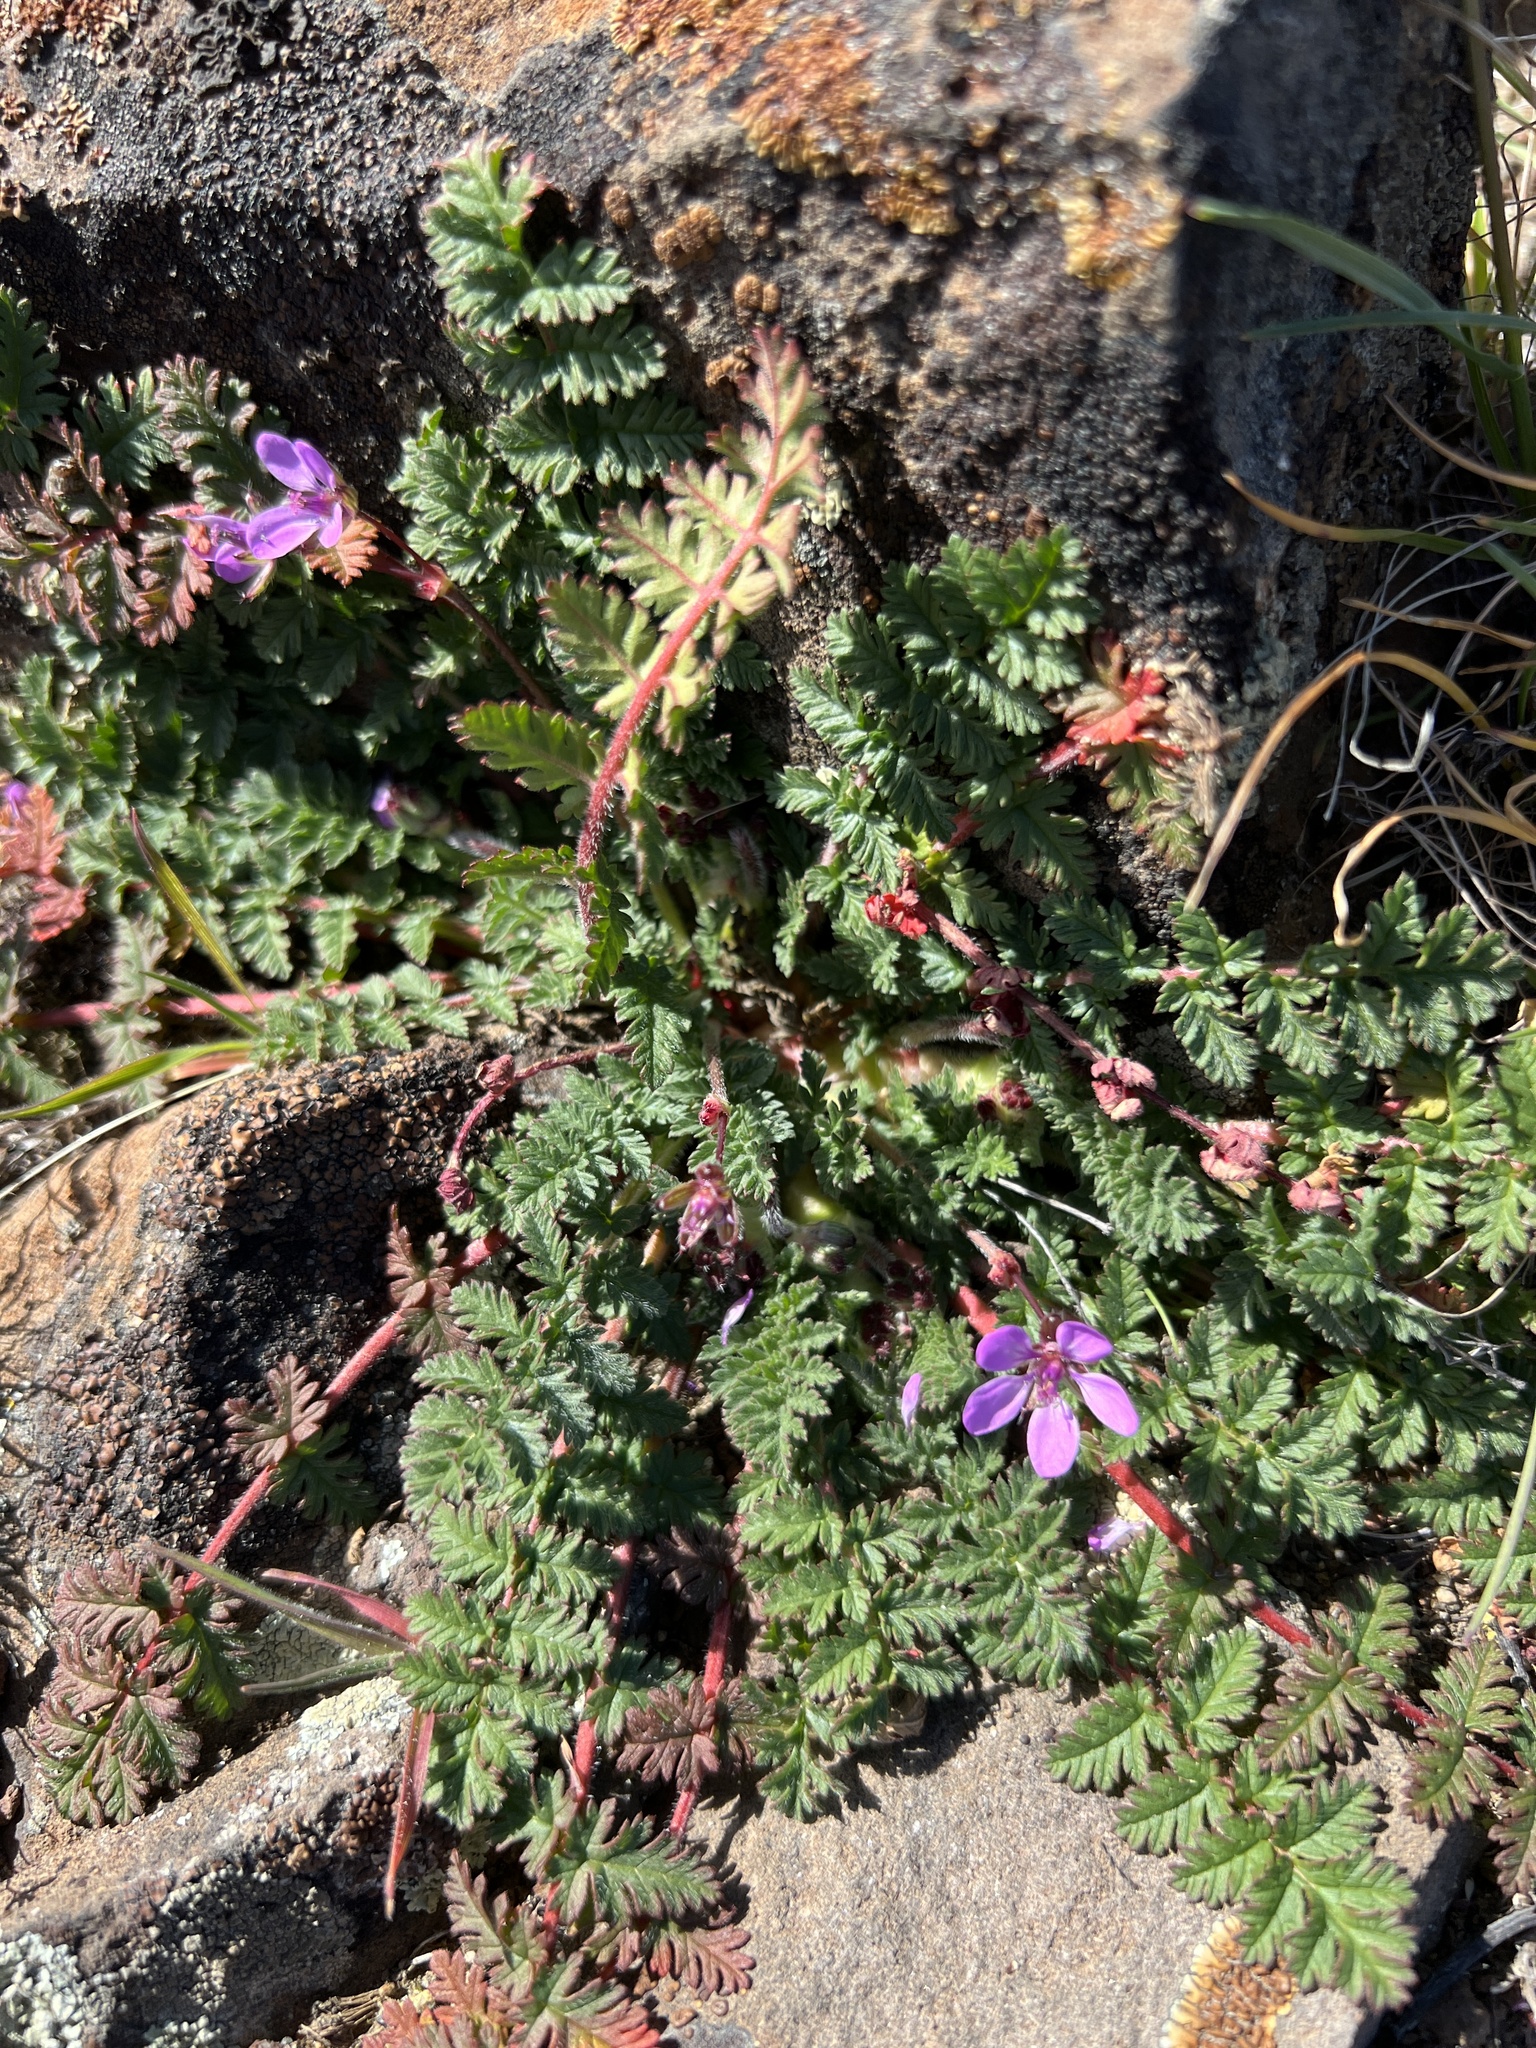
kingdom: Plantae
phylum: Tracheophyta
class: Magnoliopsida
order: Geraniales
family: Geraniaceae
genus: Erodium
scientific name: Erodium cicutarium
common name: Common stork's-bill
